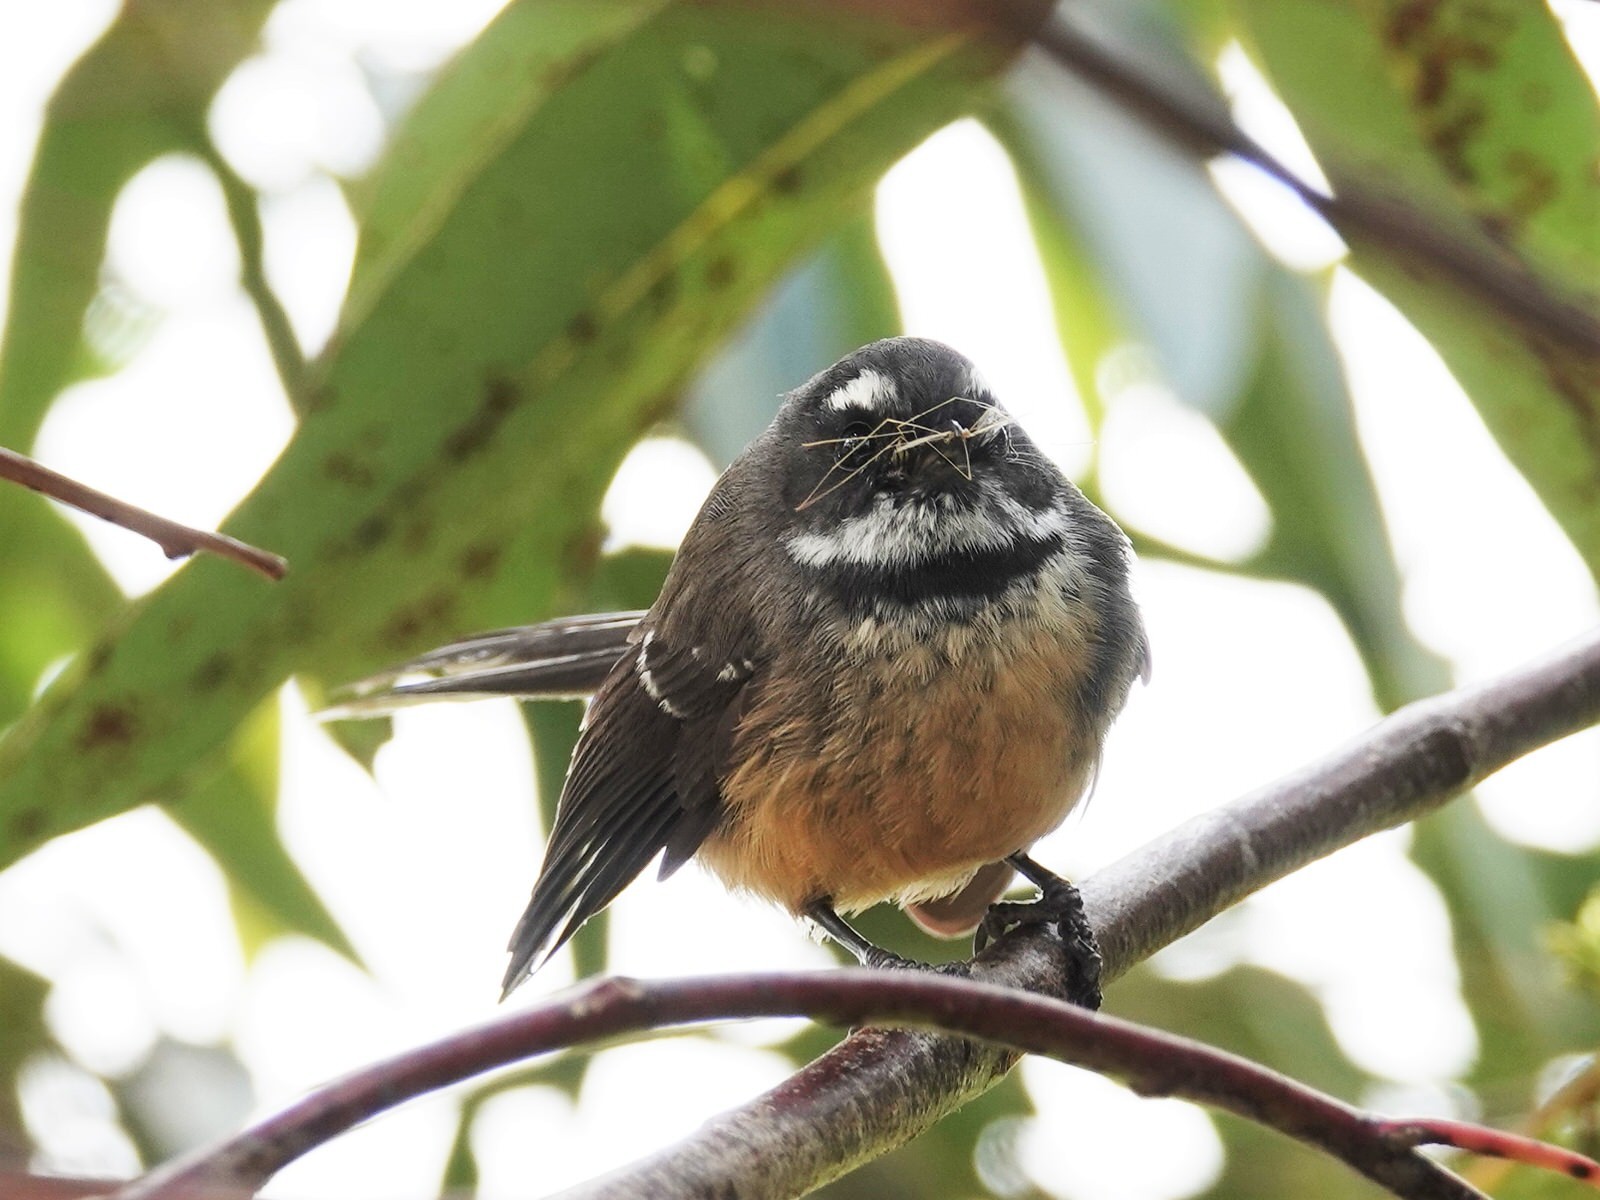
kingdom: Animalia
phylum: Chordata
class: Aves
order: Passeriformes
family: Rhipiduridae
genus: Rhipidura
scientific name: Rhipidura fuliginosa
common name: New zealand fantail
